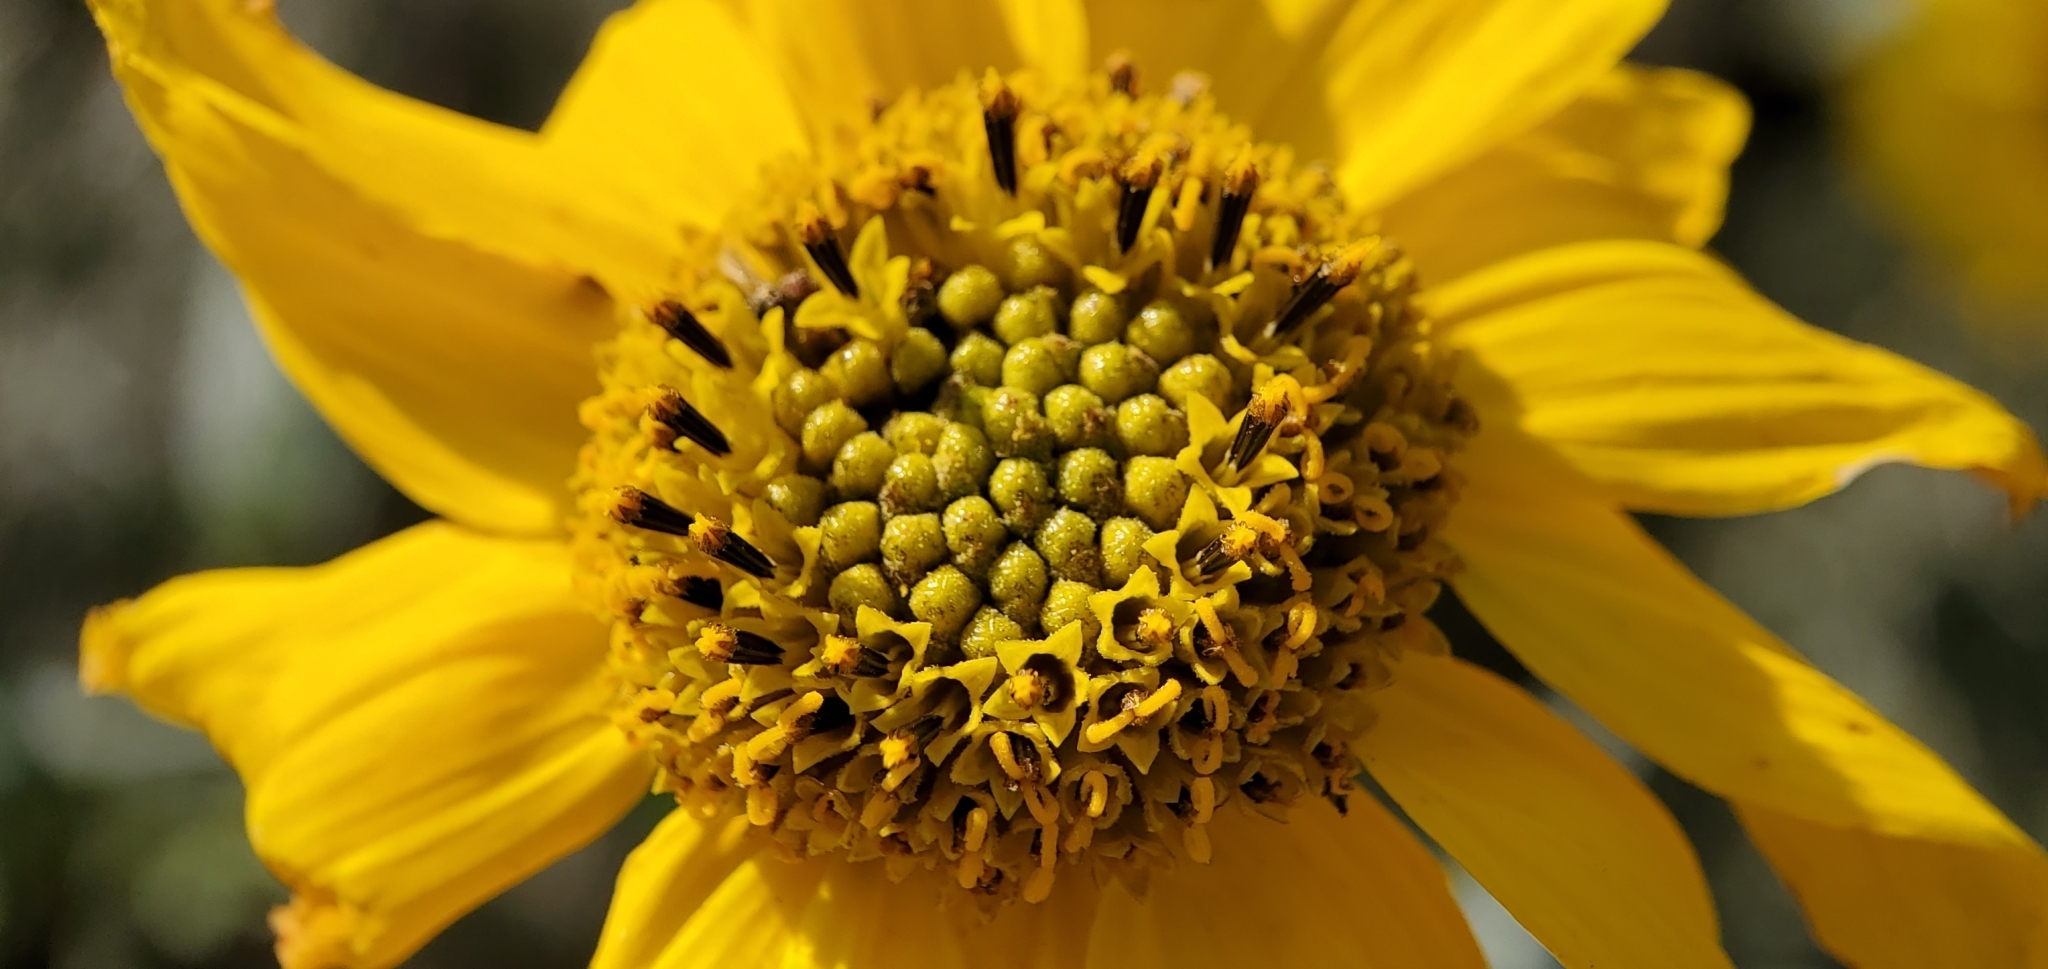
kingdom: Plantae
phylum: Tracheophyta
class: Magnoliopsida
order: Asterales
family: Asteraceae
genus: Helianthus
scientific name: Helianthus gracilentus
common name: Slender sunflower
